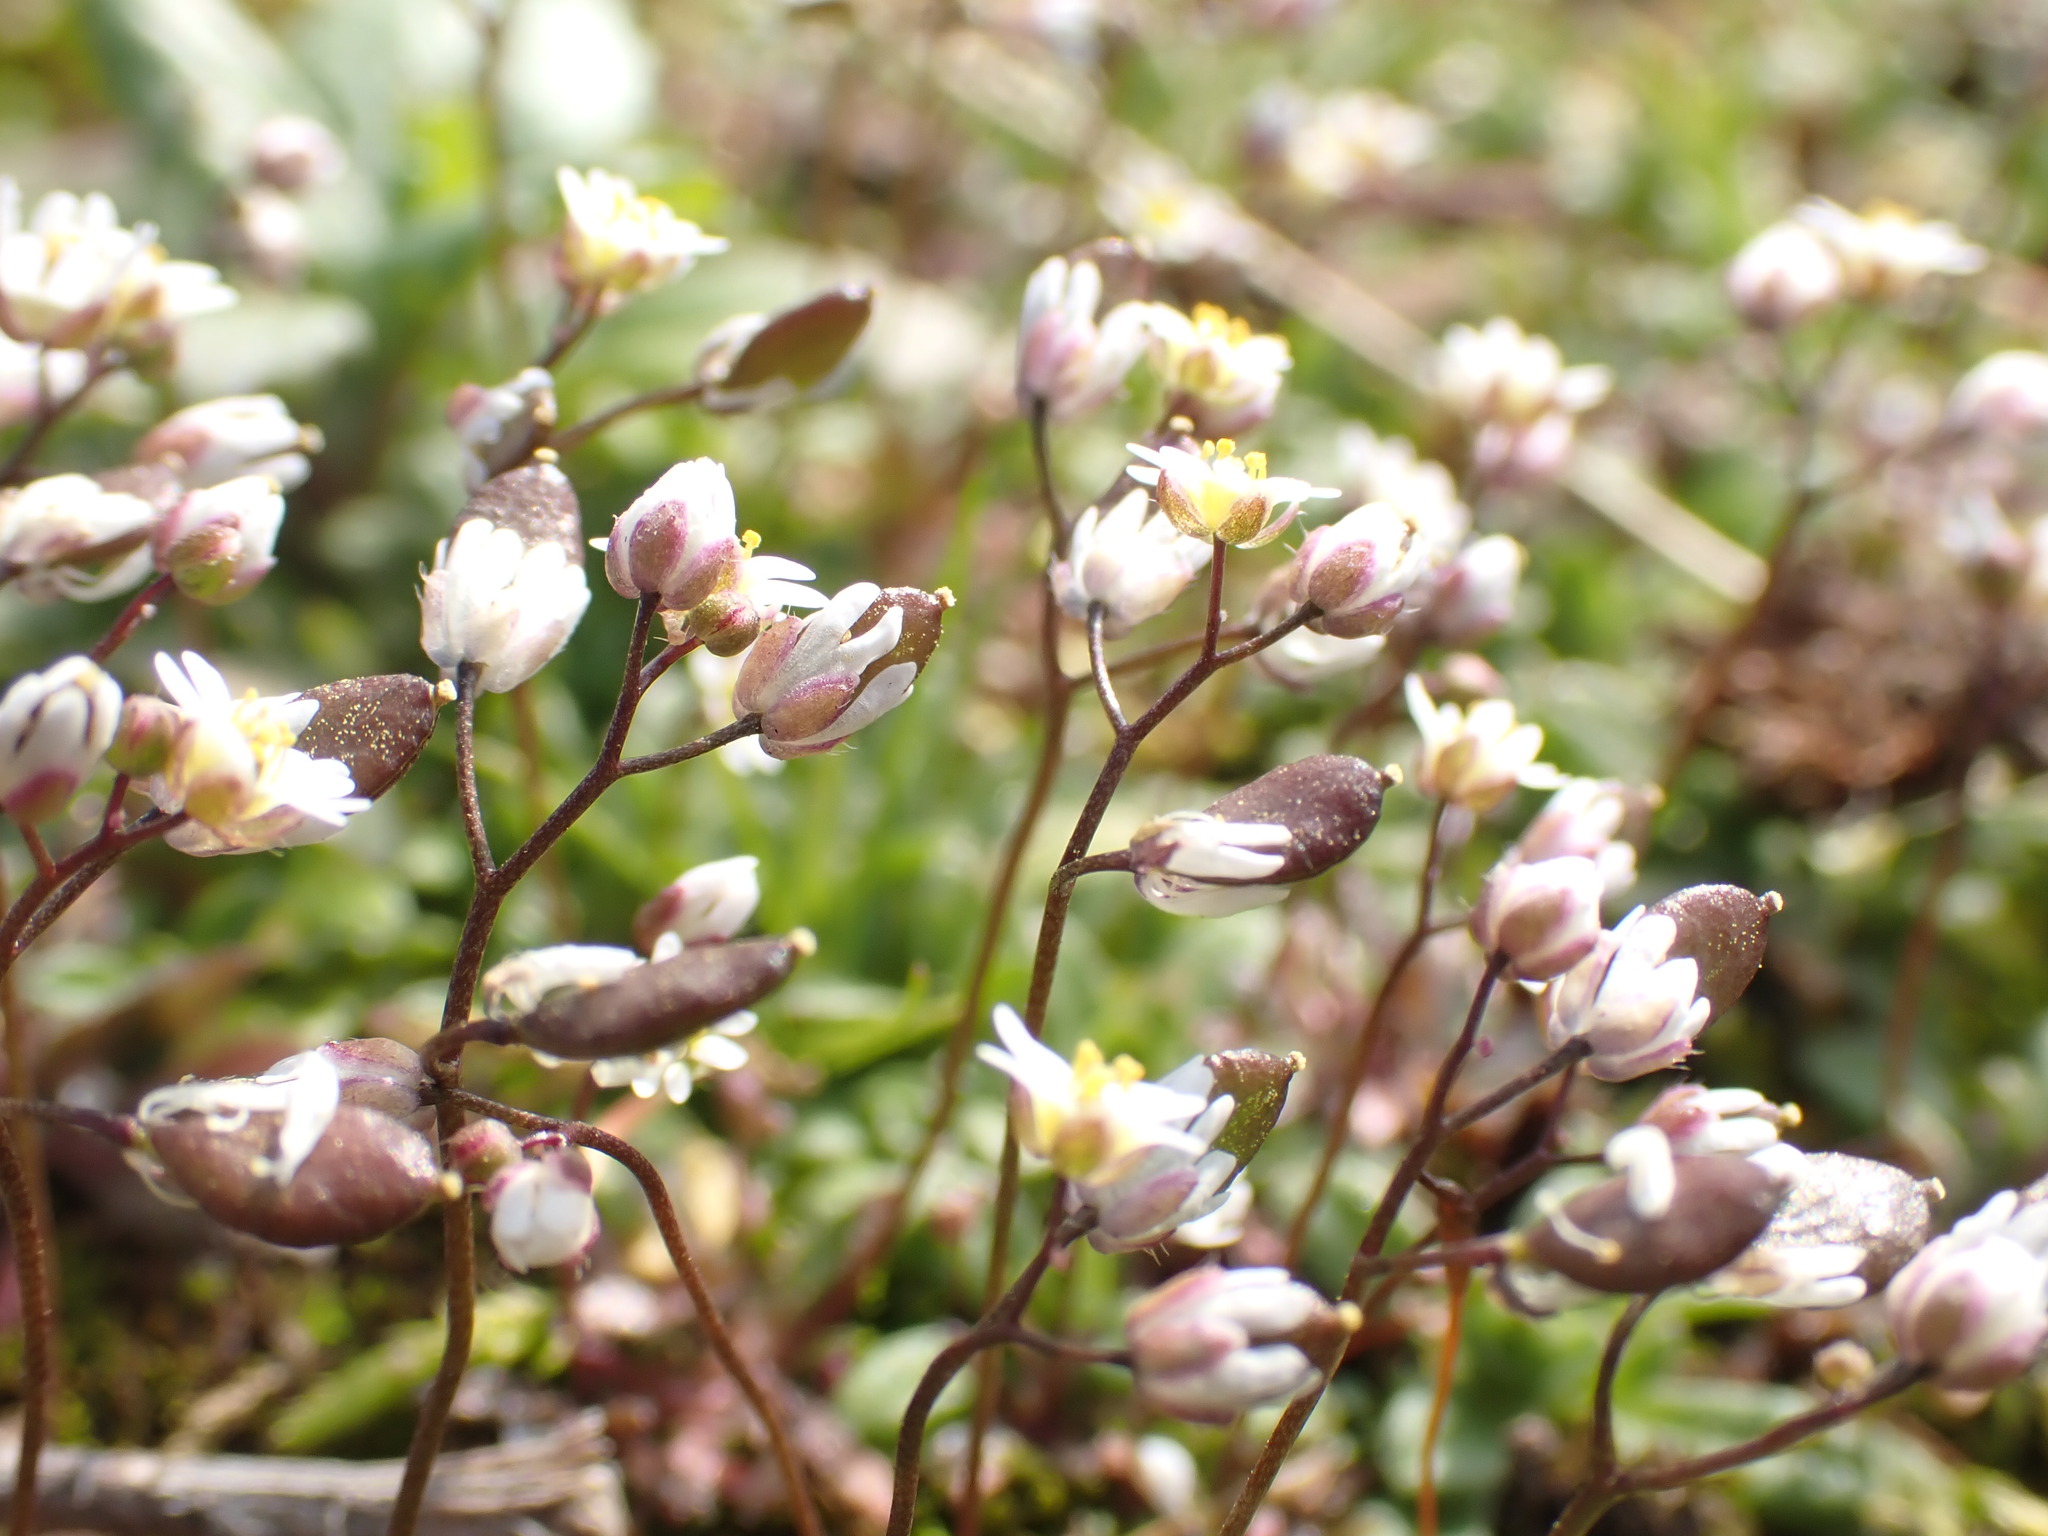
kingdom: Plantae
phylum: Tracheophyta
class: Magnoliopsida
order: Brassicales
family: Brassicaceae
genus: Draba
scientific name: Draba verna
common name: Spring draba
